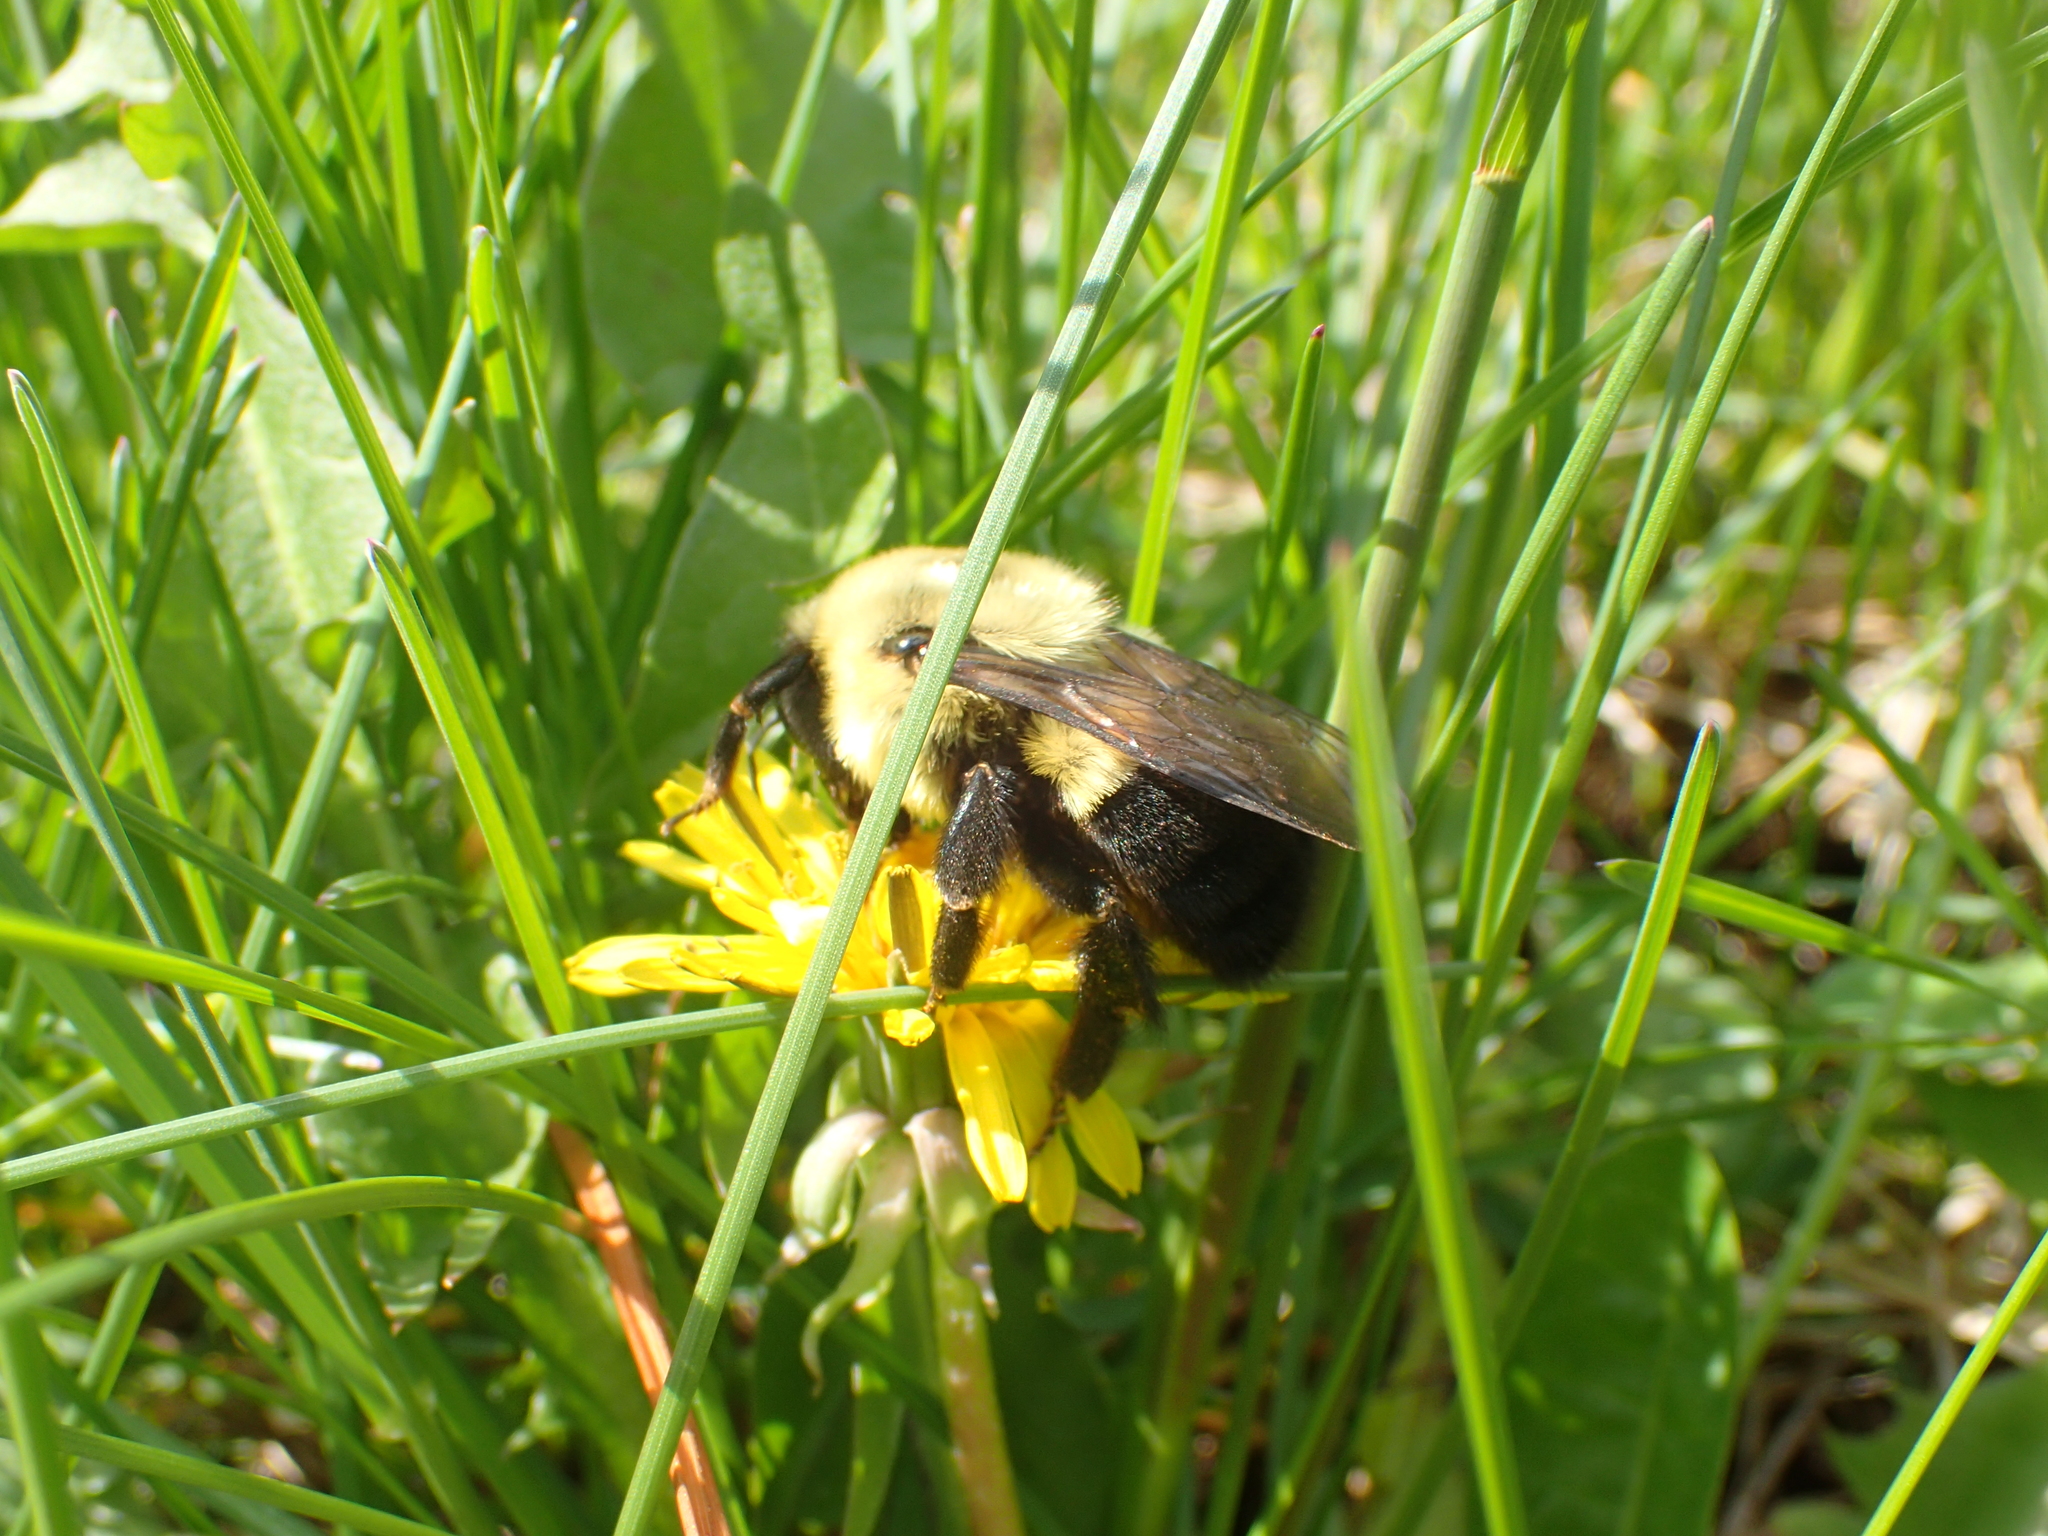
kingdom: Animalia
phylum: Arthropoda
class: Insecta
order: Hymenoptera
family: Apidae
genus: Bombus
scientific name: Bombus impatiens
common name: Common eastern bumble bee
